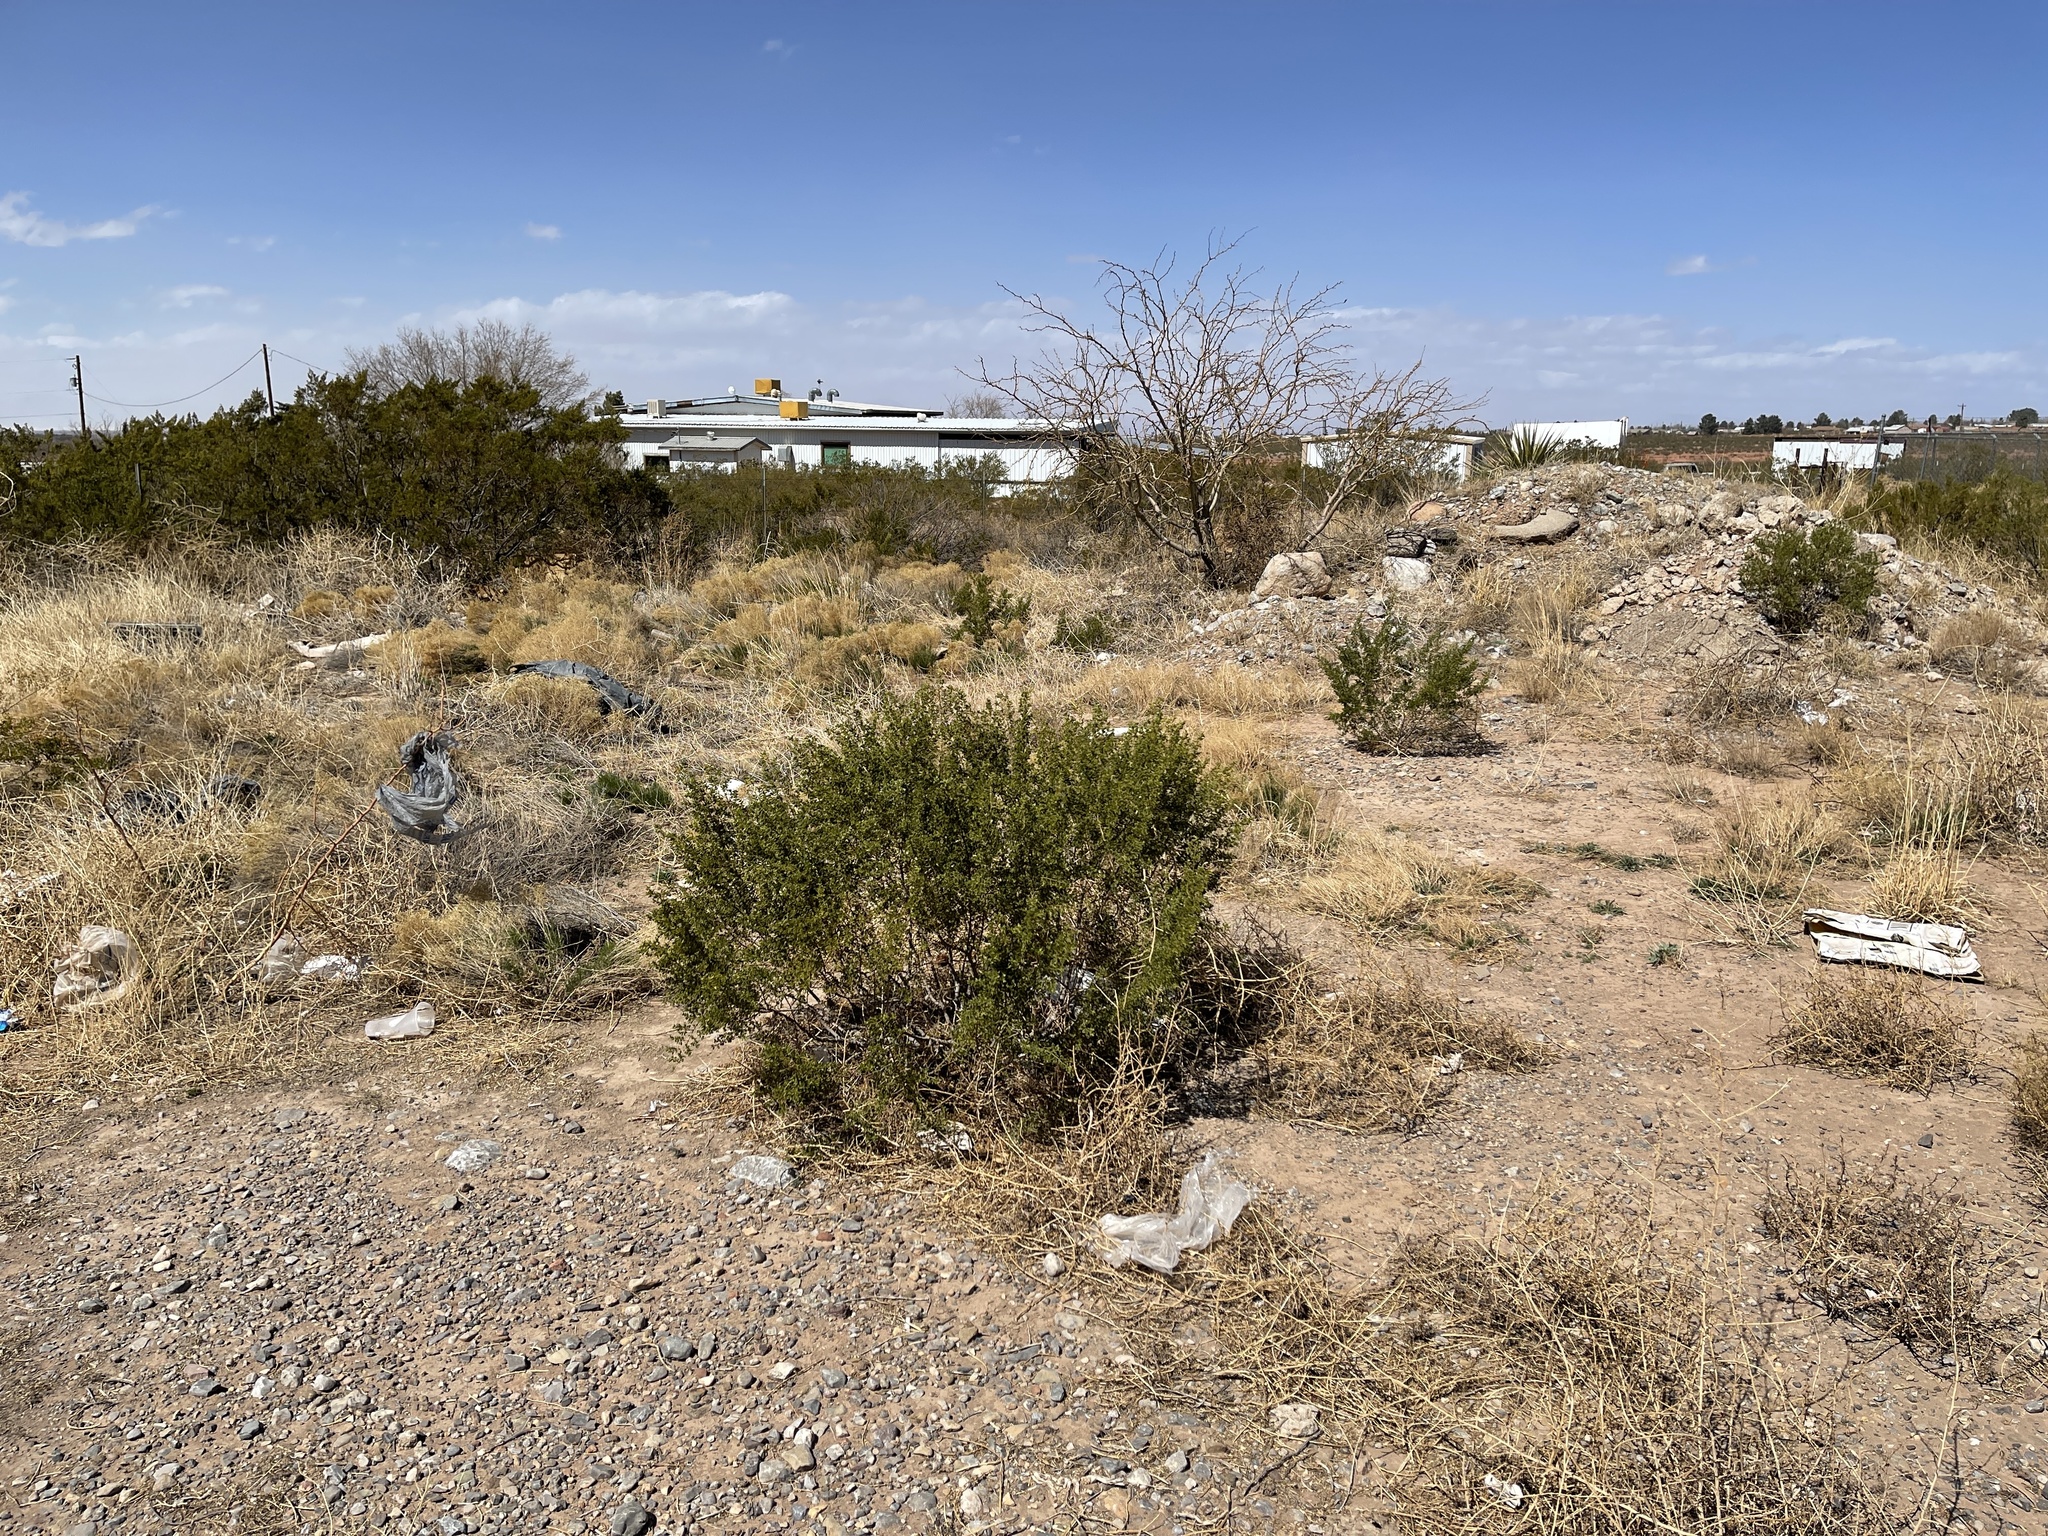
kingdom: Plantae
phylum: Tracheophyta
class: Magnoliopsida
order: Zygophyllales
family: Zygophyllaceae
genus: Larrea
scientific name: Larrea tridentata
